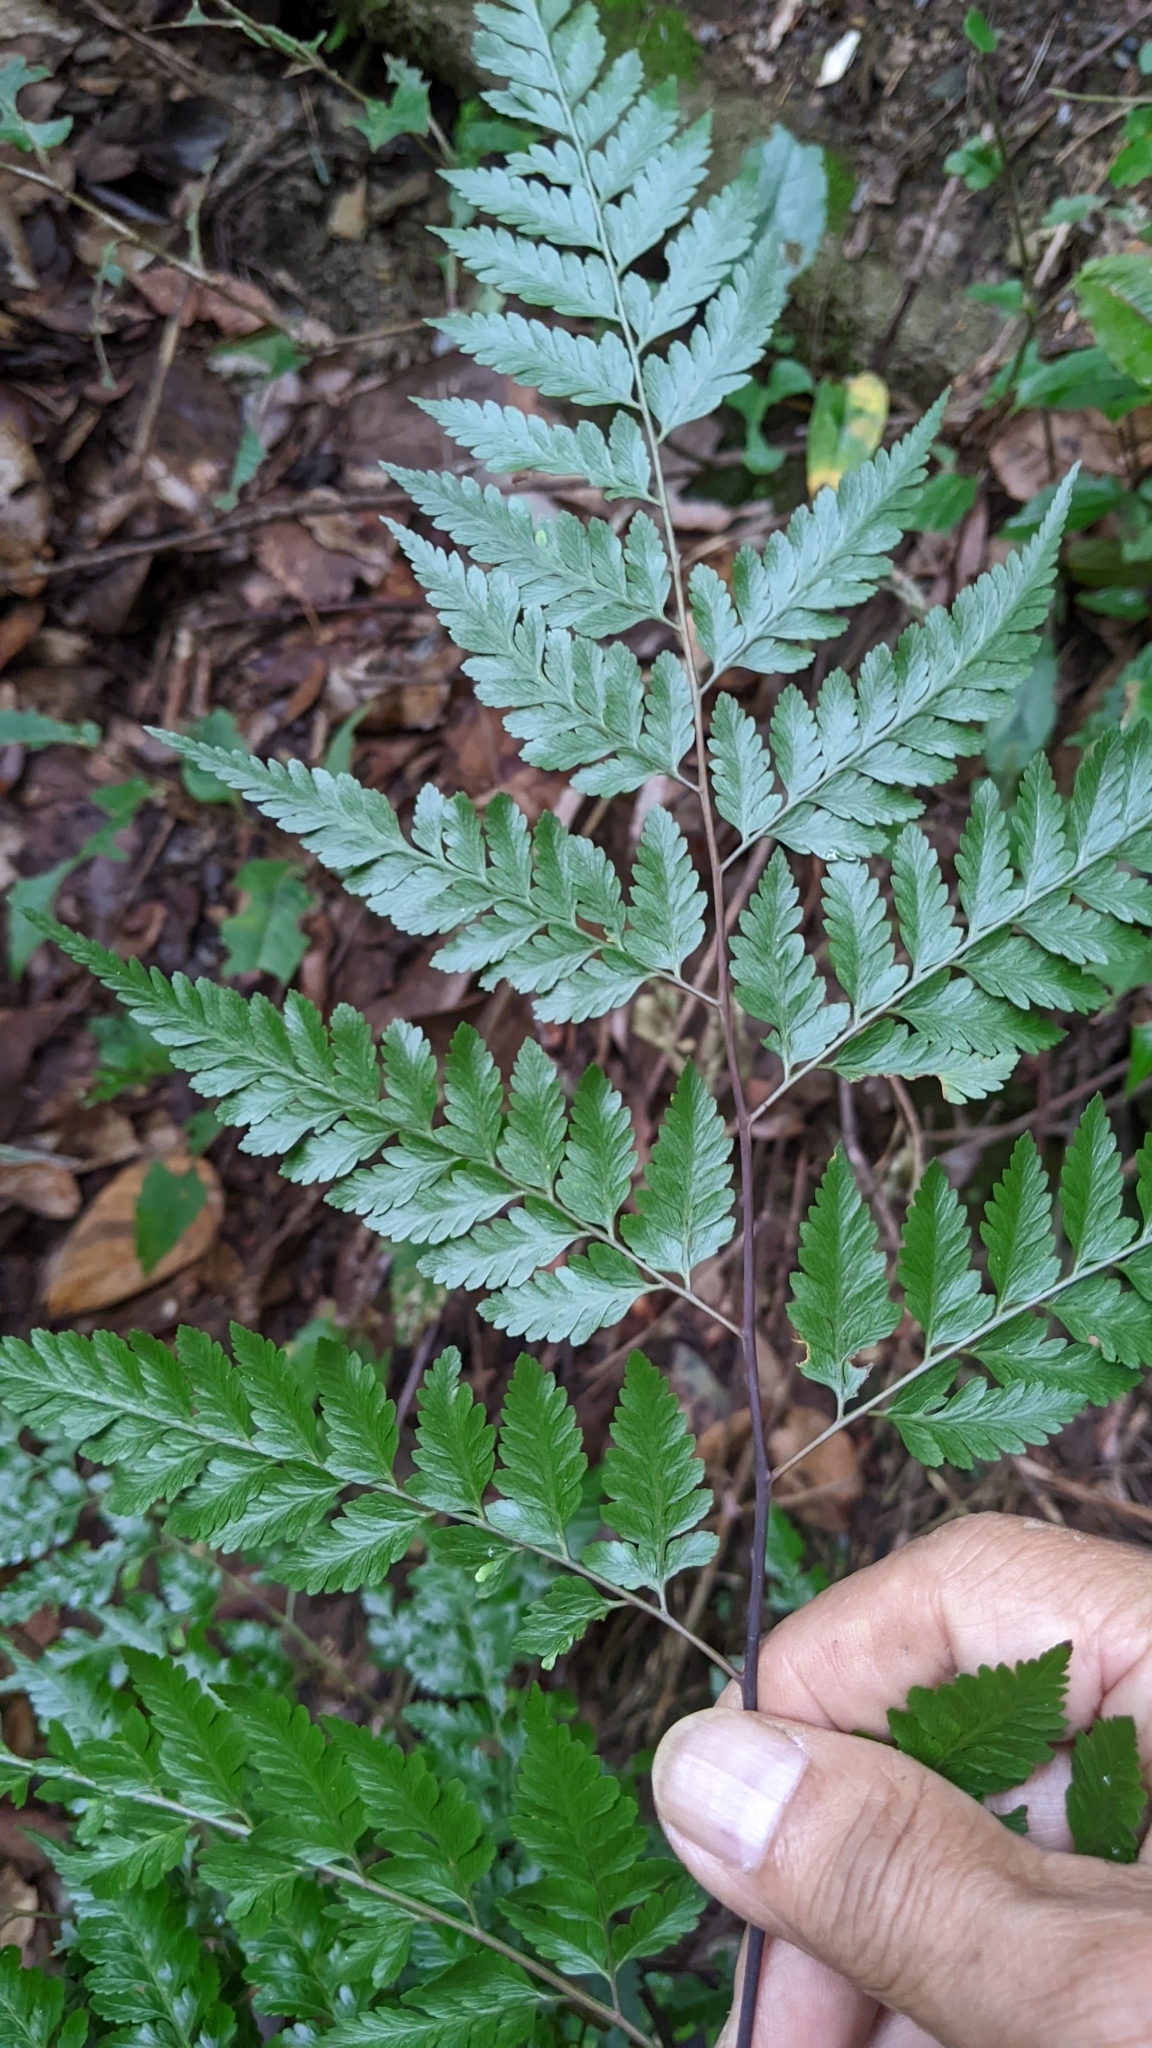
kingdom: Plantae
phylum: Tracheophyta
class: Polypodiopsida
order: Polypodiales
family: Davalliaceae
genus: Davallia
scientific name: Davallia divaricata
